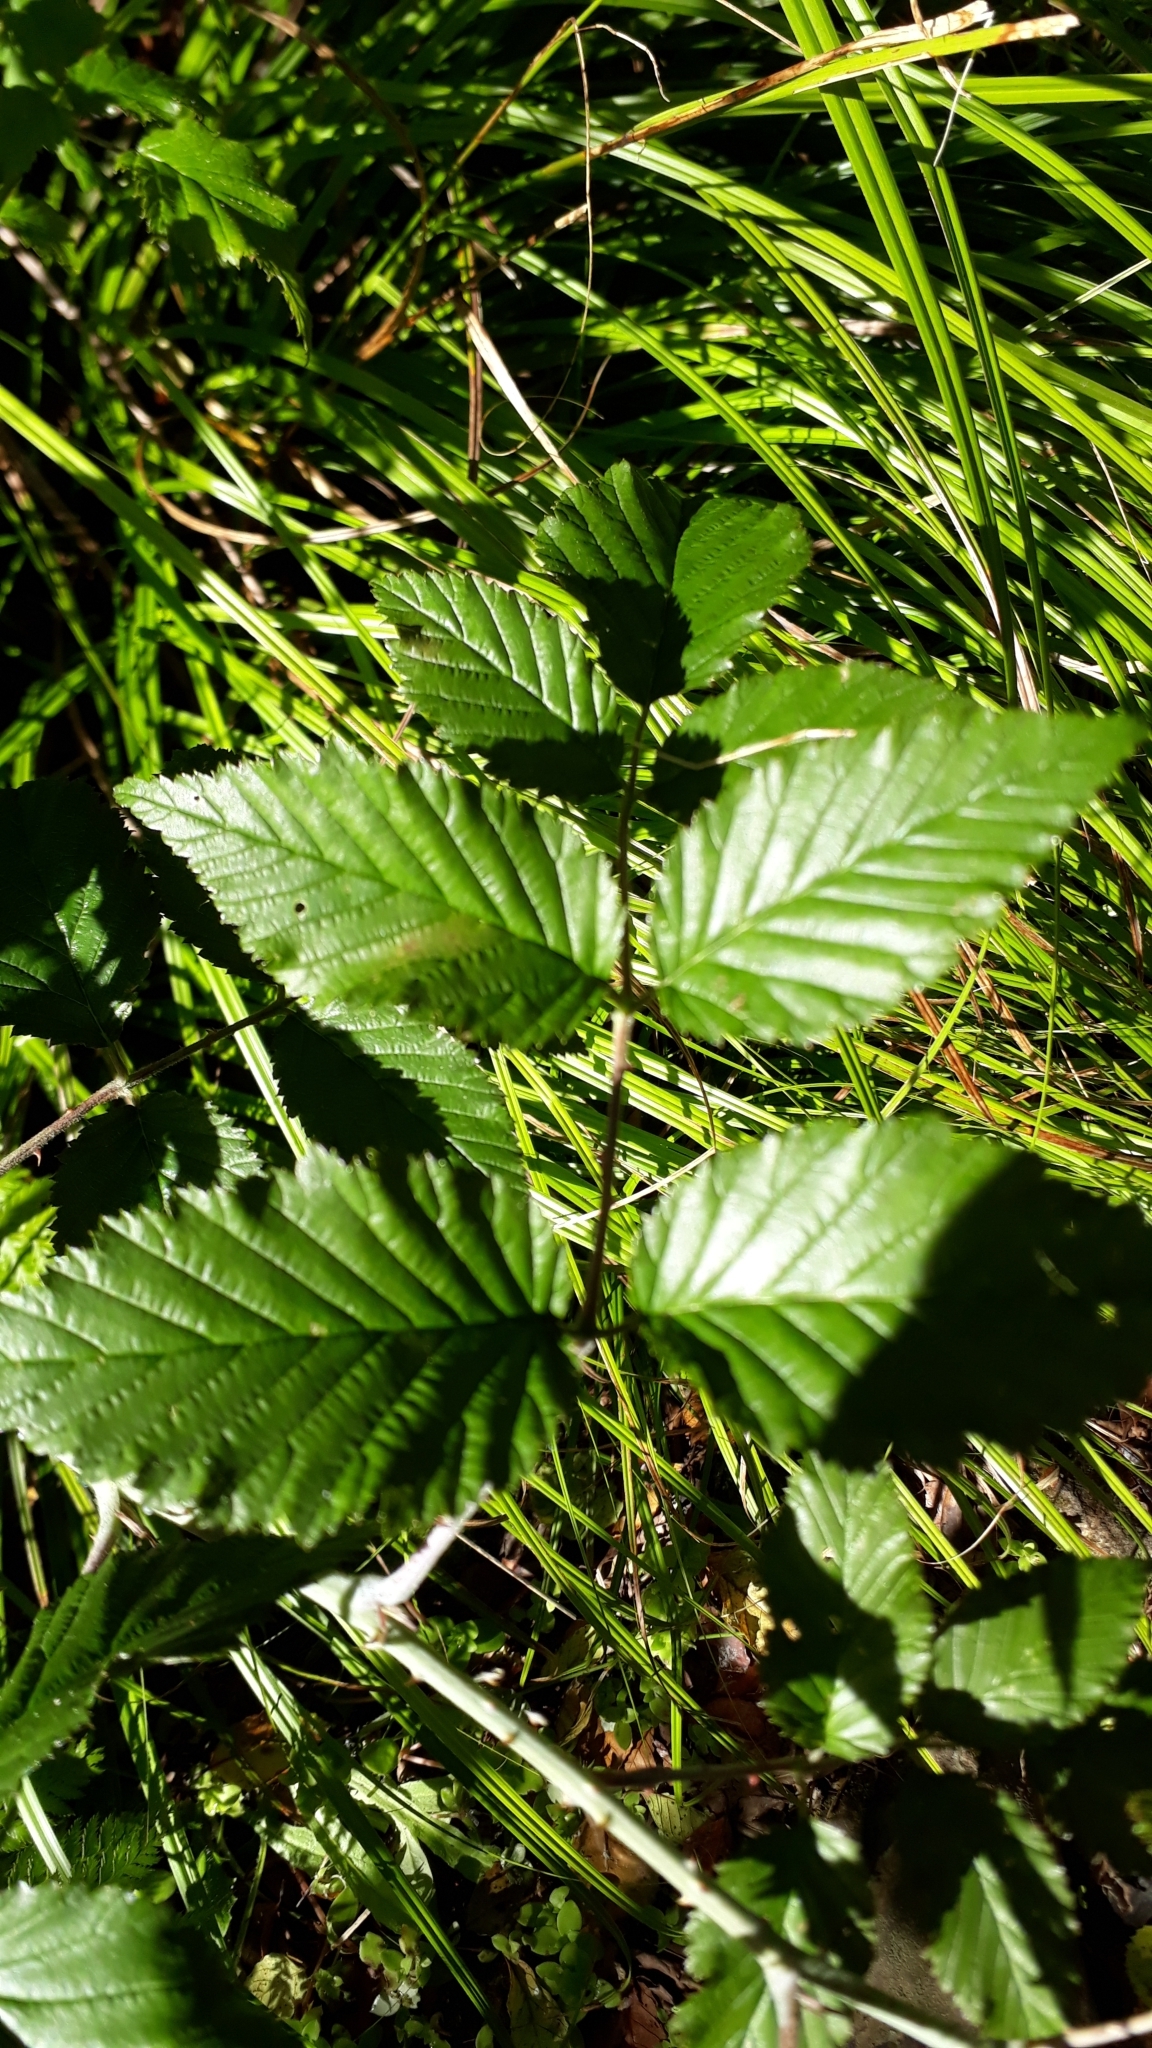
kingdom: Plantae
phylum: Tracheophyta
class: Magnoliopsida
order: Rosales
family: Rosaceae
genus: Rubus
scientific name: Rubus pinnatus
